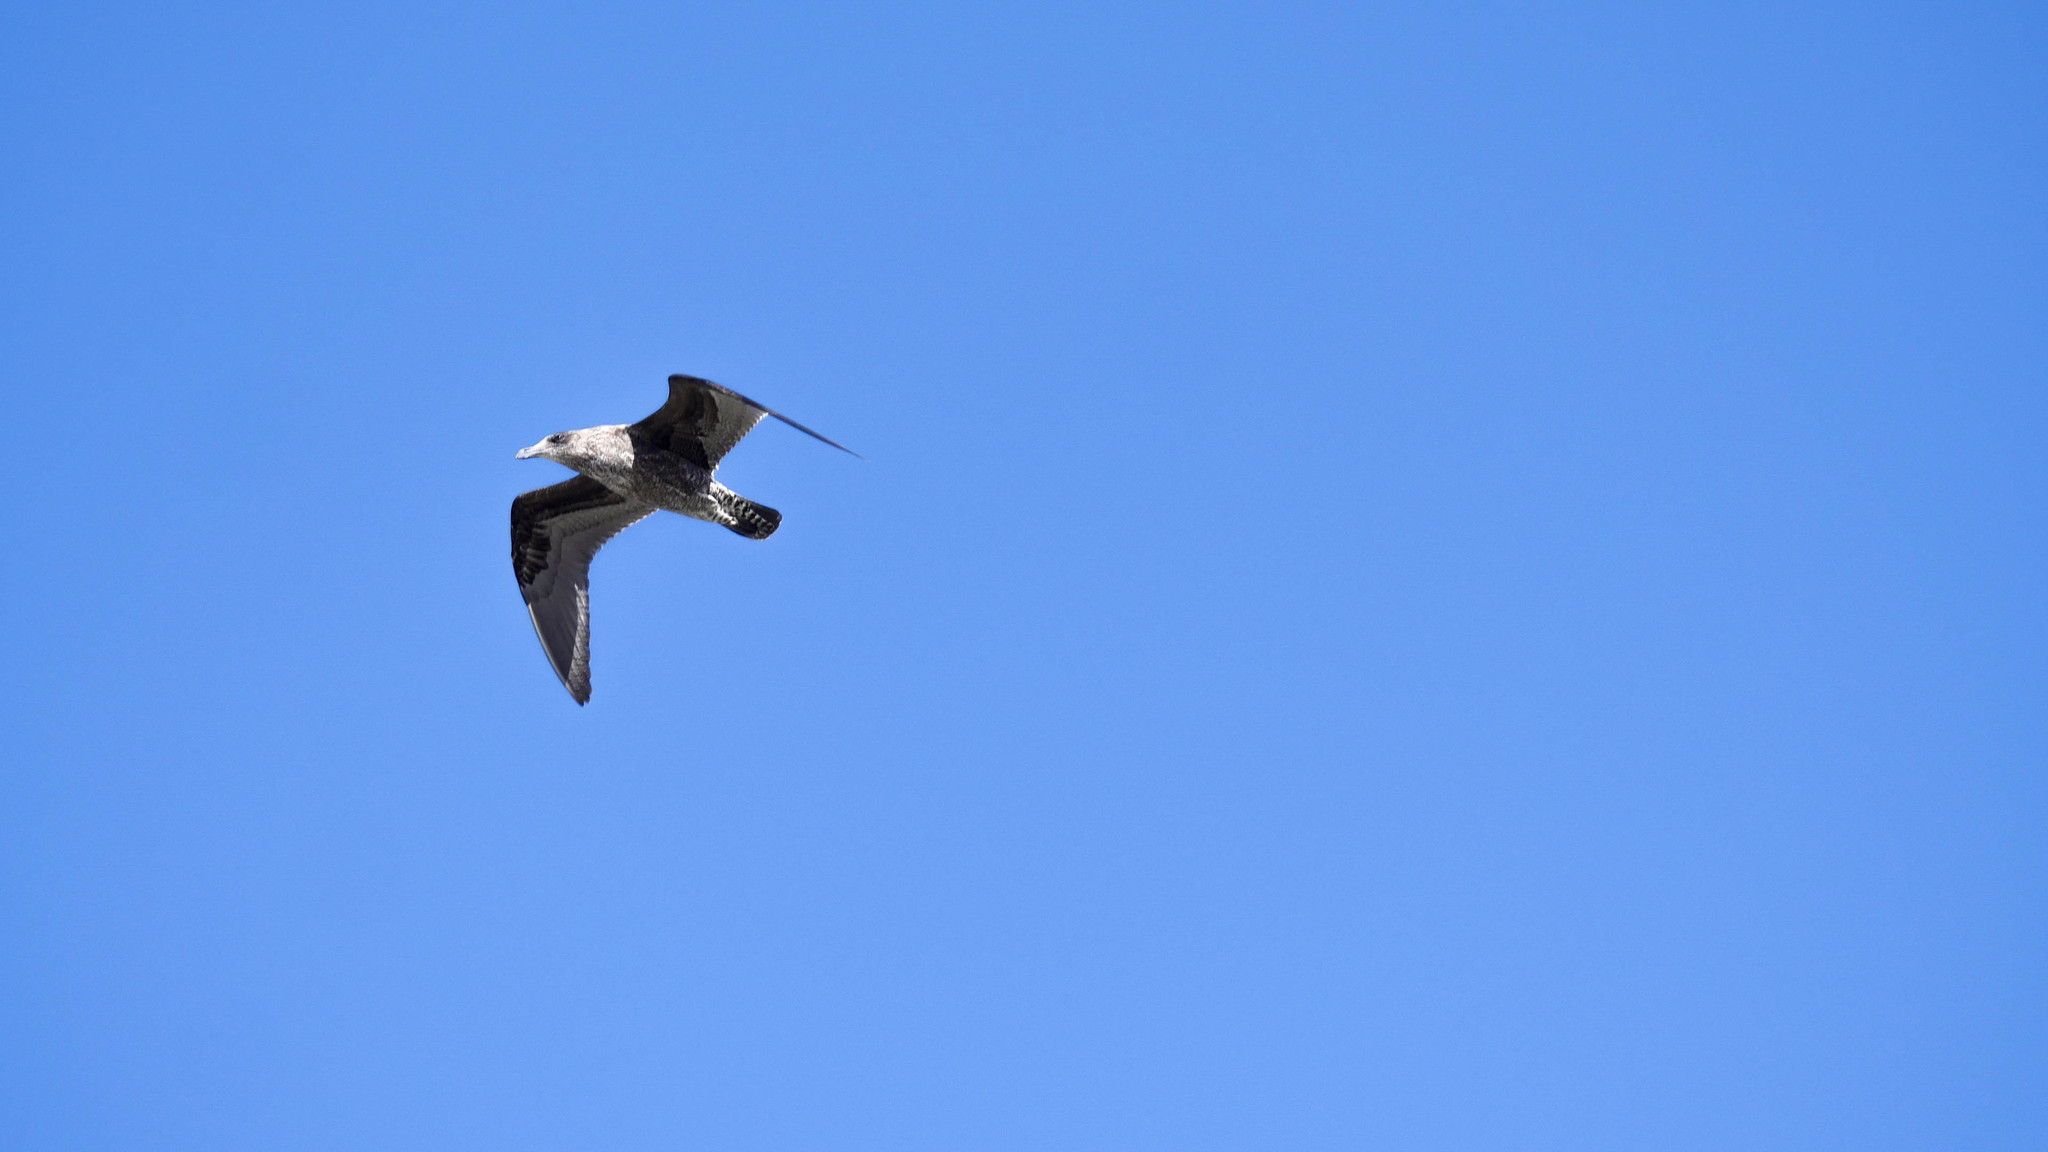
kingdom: Animalia
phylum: Chordata
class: Aves
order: Charadriiformes
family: Laridae
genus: Larus
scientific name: Larus dominicanus
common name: Kelp gull
